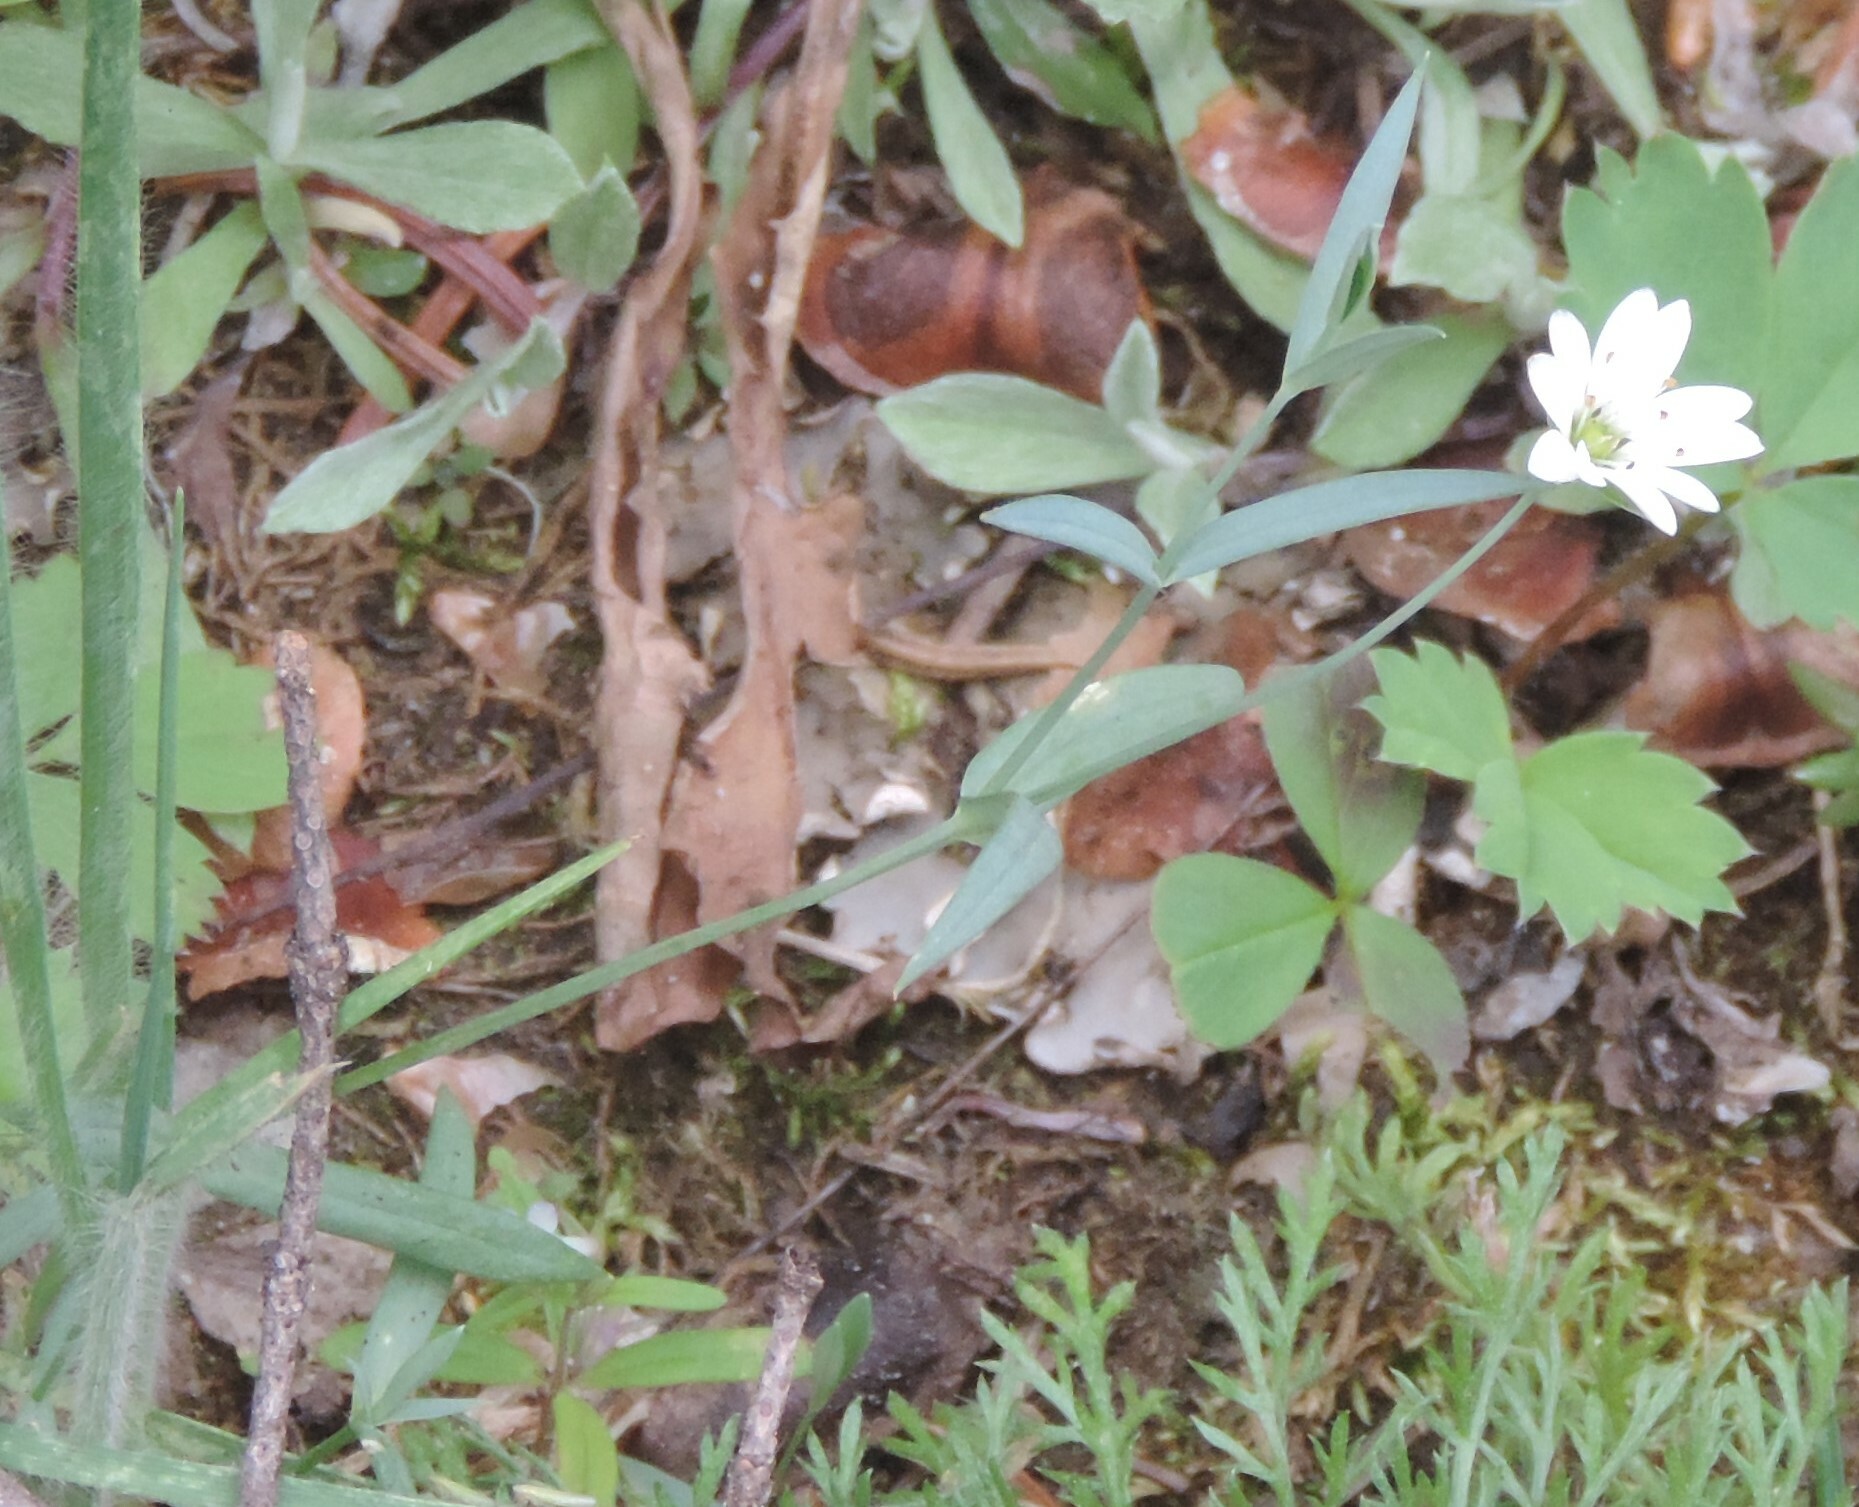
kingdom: Plantae
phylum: Tracheophyta
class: Magnoliopsida
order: Caryophyllales
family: Caryophyllaceae
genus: Stellaria
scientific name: Stellaria longipes
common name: Goldie's starwort
